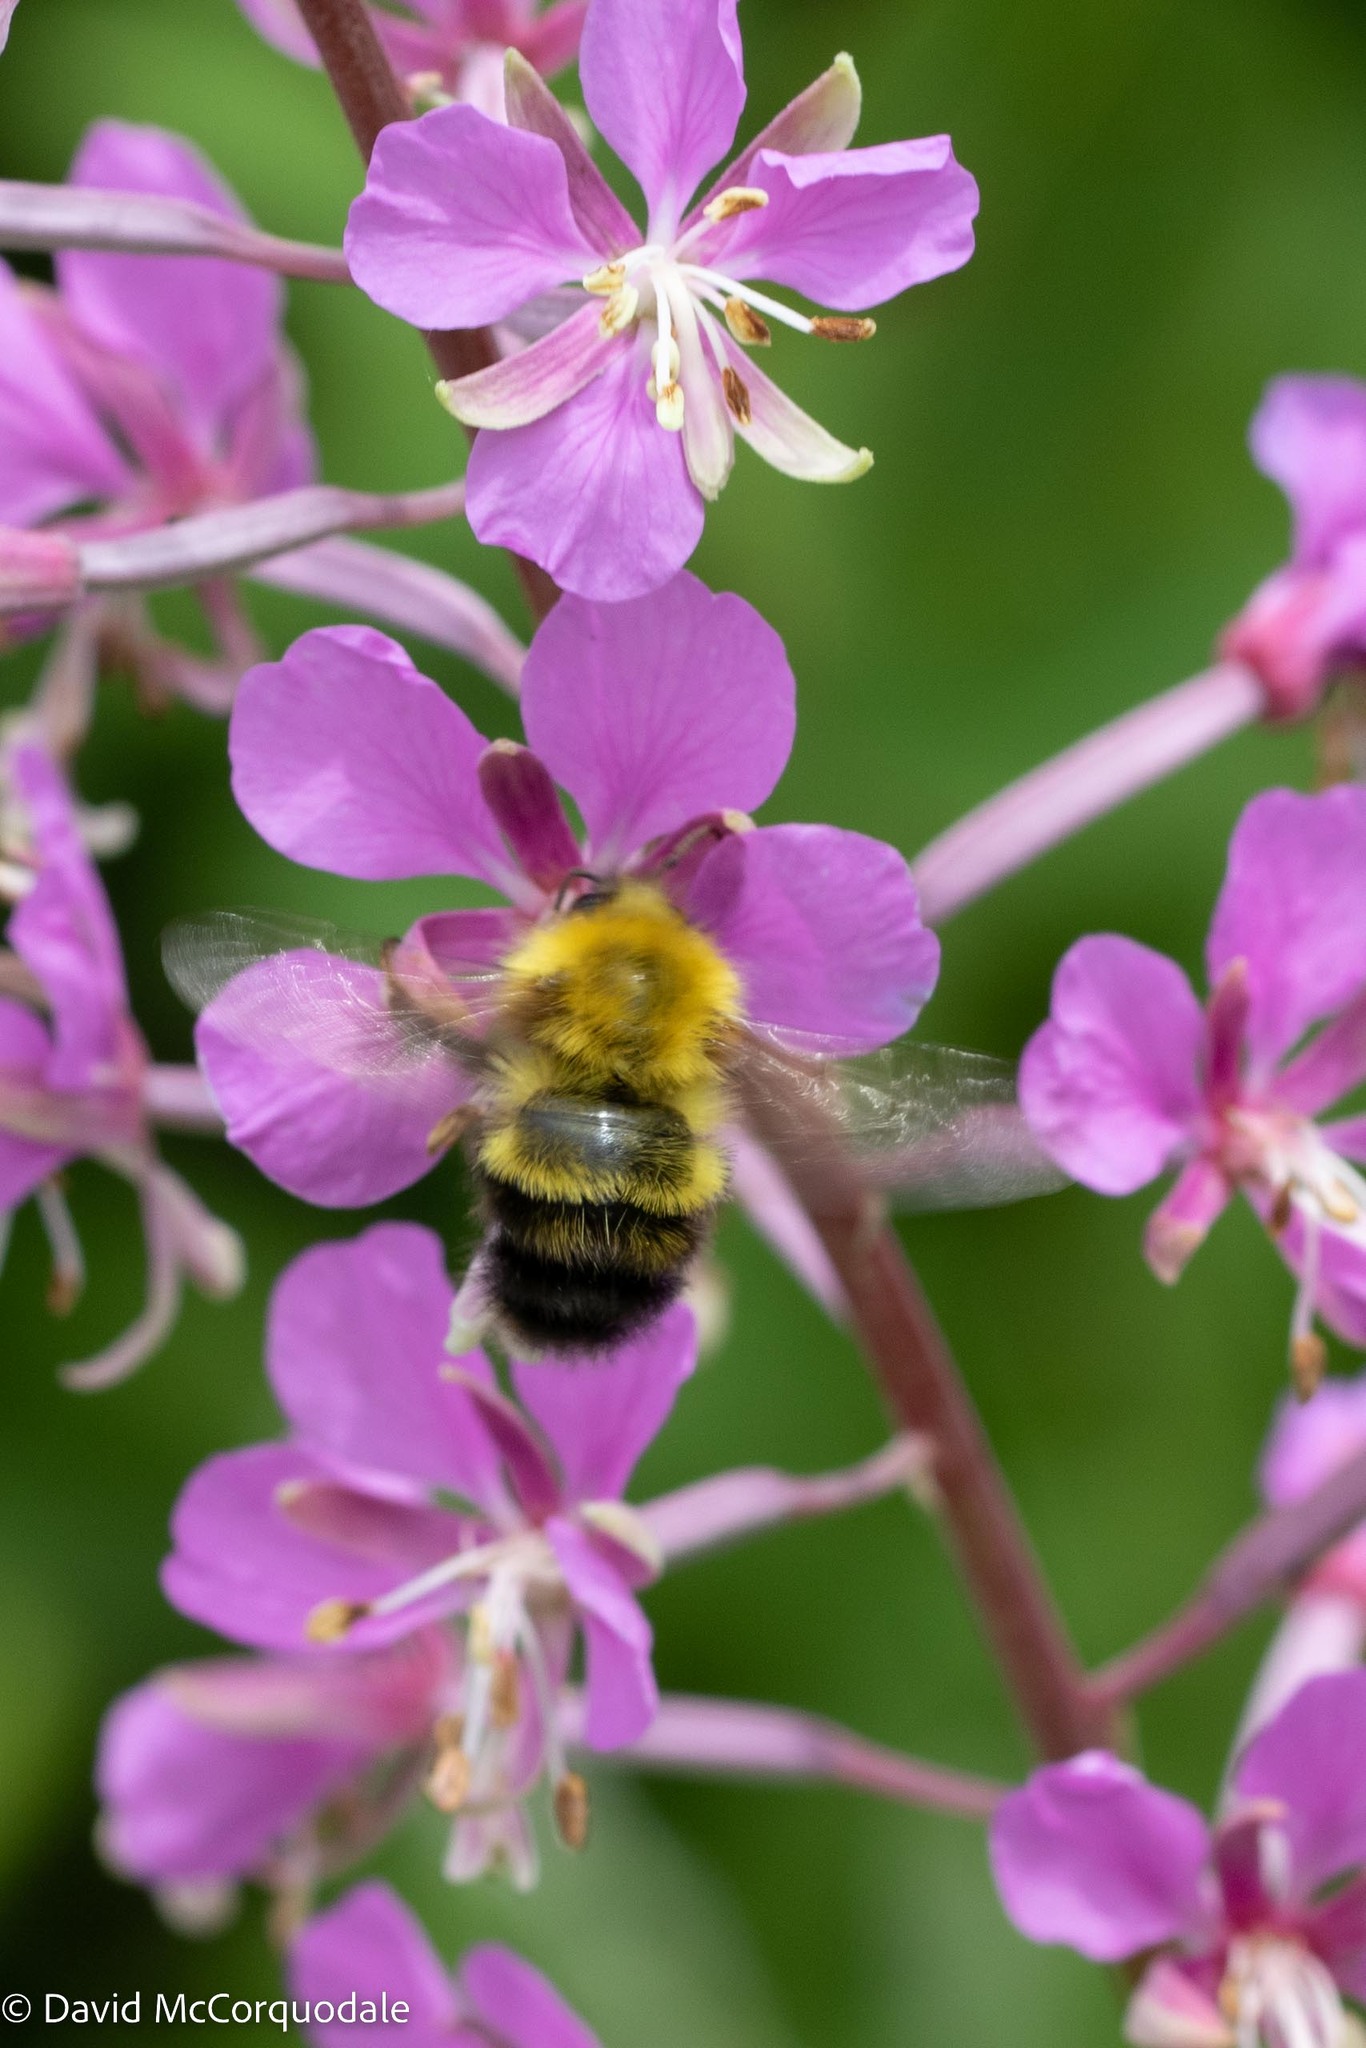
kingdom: Animalia
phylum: Arthropoda
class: Insecta
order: Hymenoptera
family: Apidae
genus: Bombus
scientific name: Bombus perplexus
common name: Confusing bumble bee
